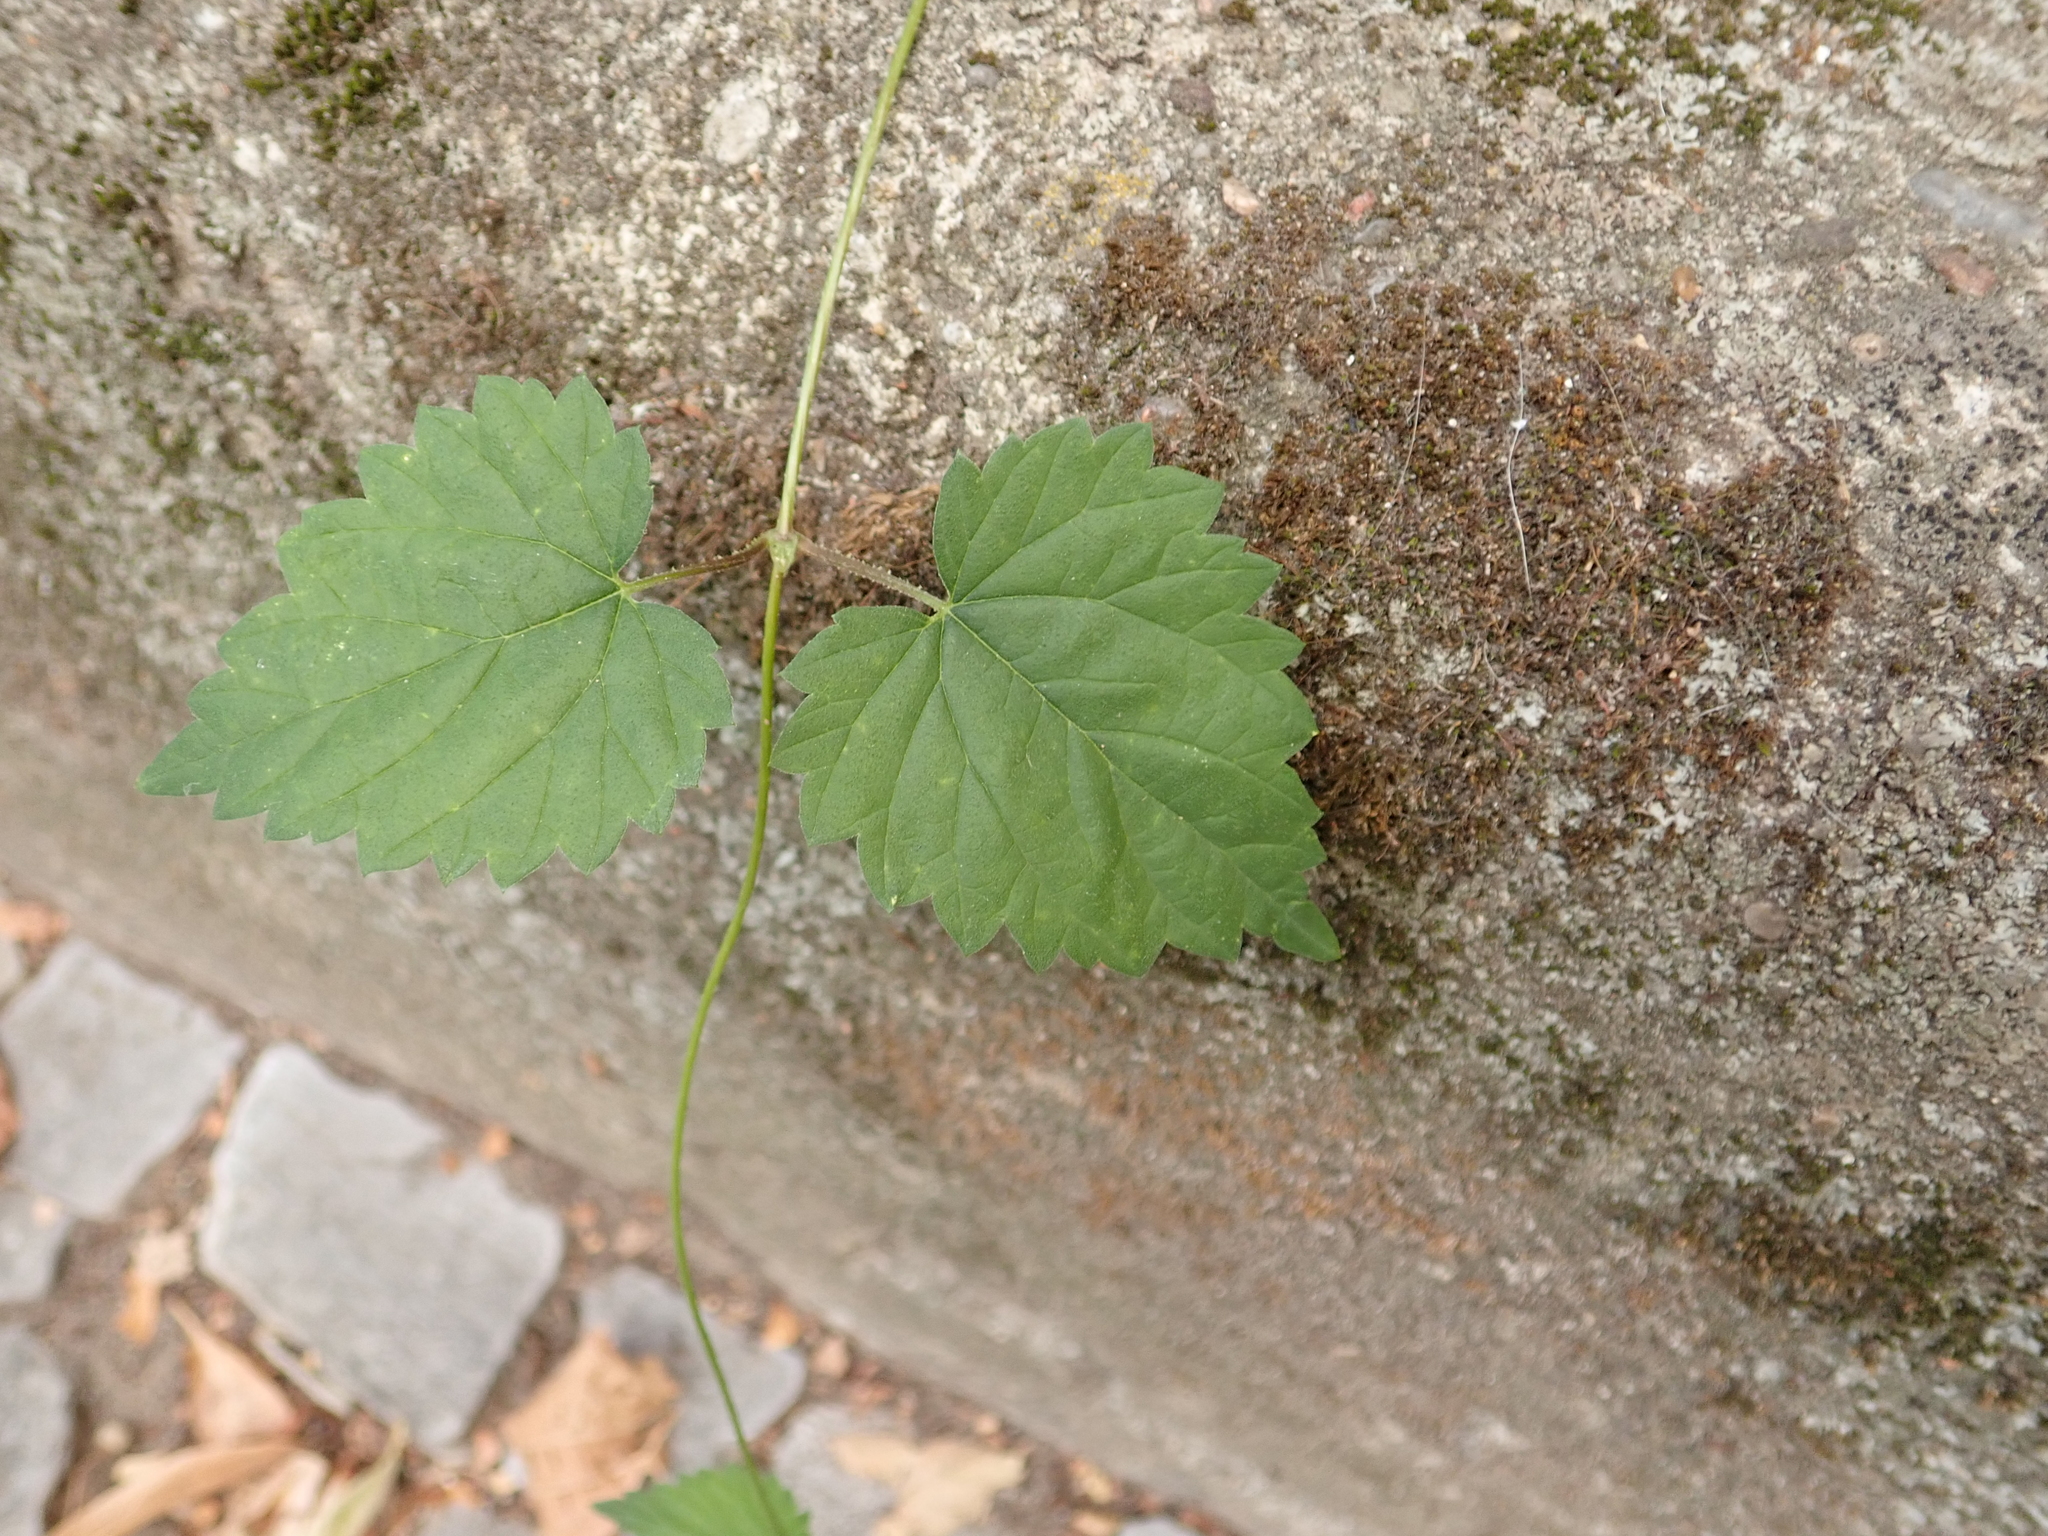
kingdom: Plantae
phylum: Tracheophyta
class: Magnoliopsida
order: Rosales
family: Cannabaceae
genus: Humulus
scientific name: Humulus lupulus
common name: Hop
